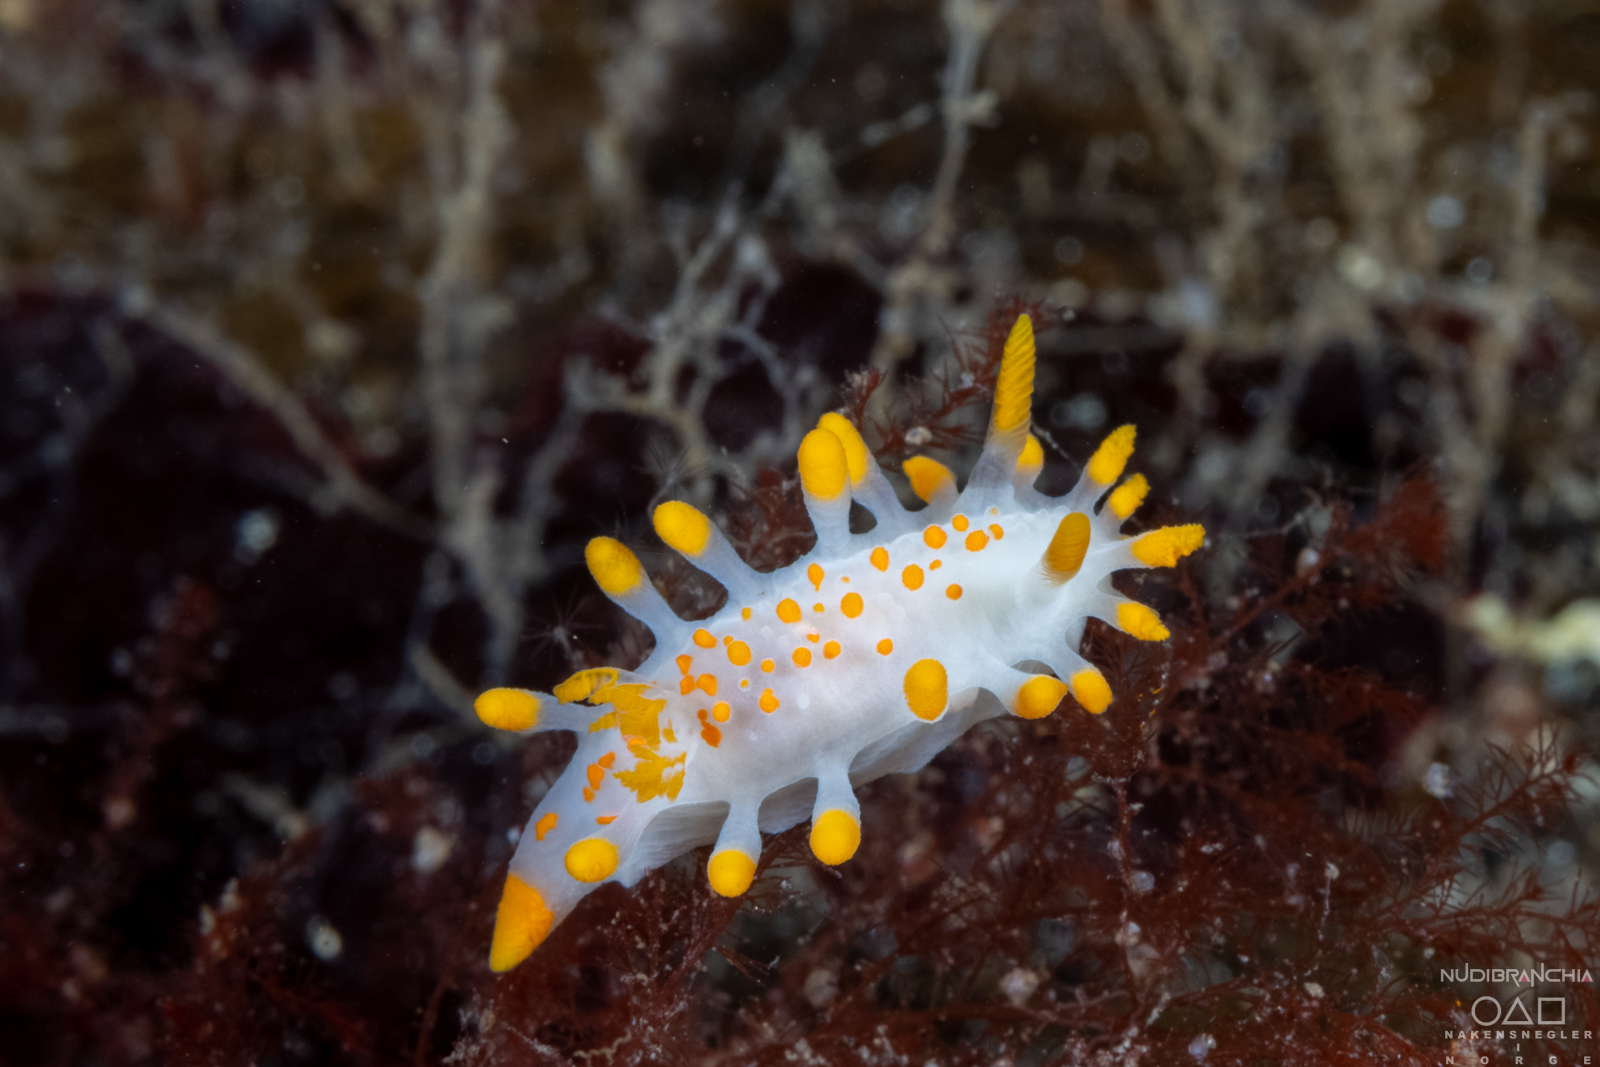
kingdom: Animalia
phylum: Mollusca
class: Gastropoda
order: Nudibranchia
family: Polyceridae
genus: Limacia
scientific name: Limacia clavigera
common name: Orange-clubbed sea slug
